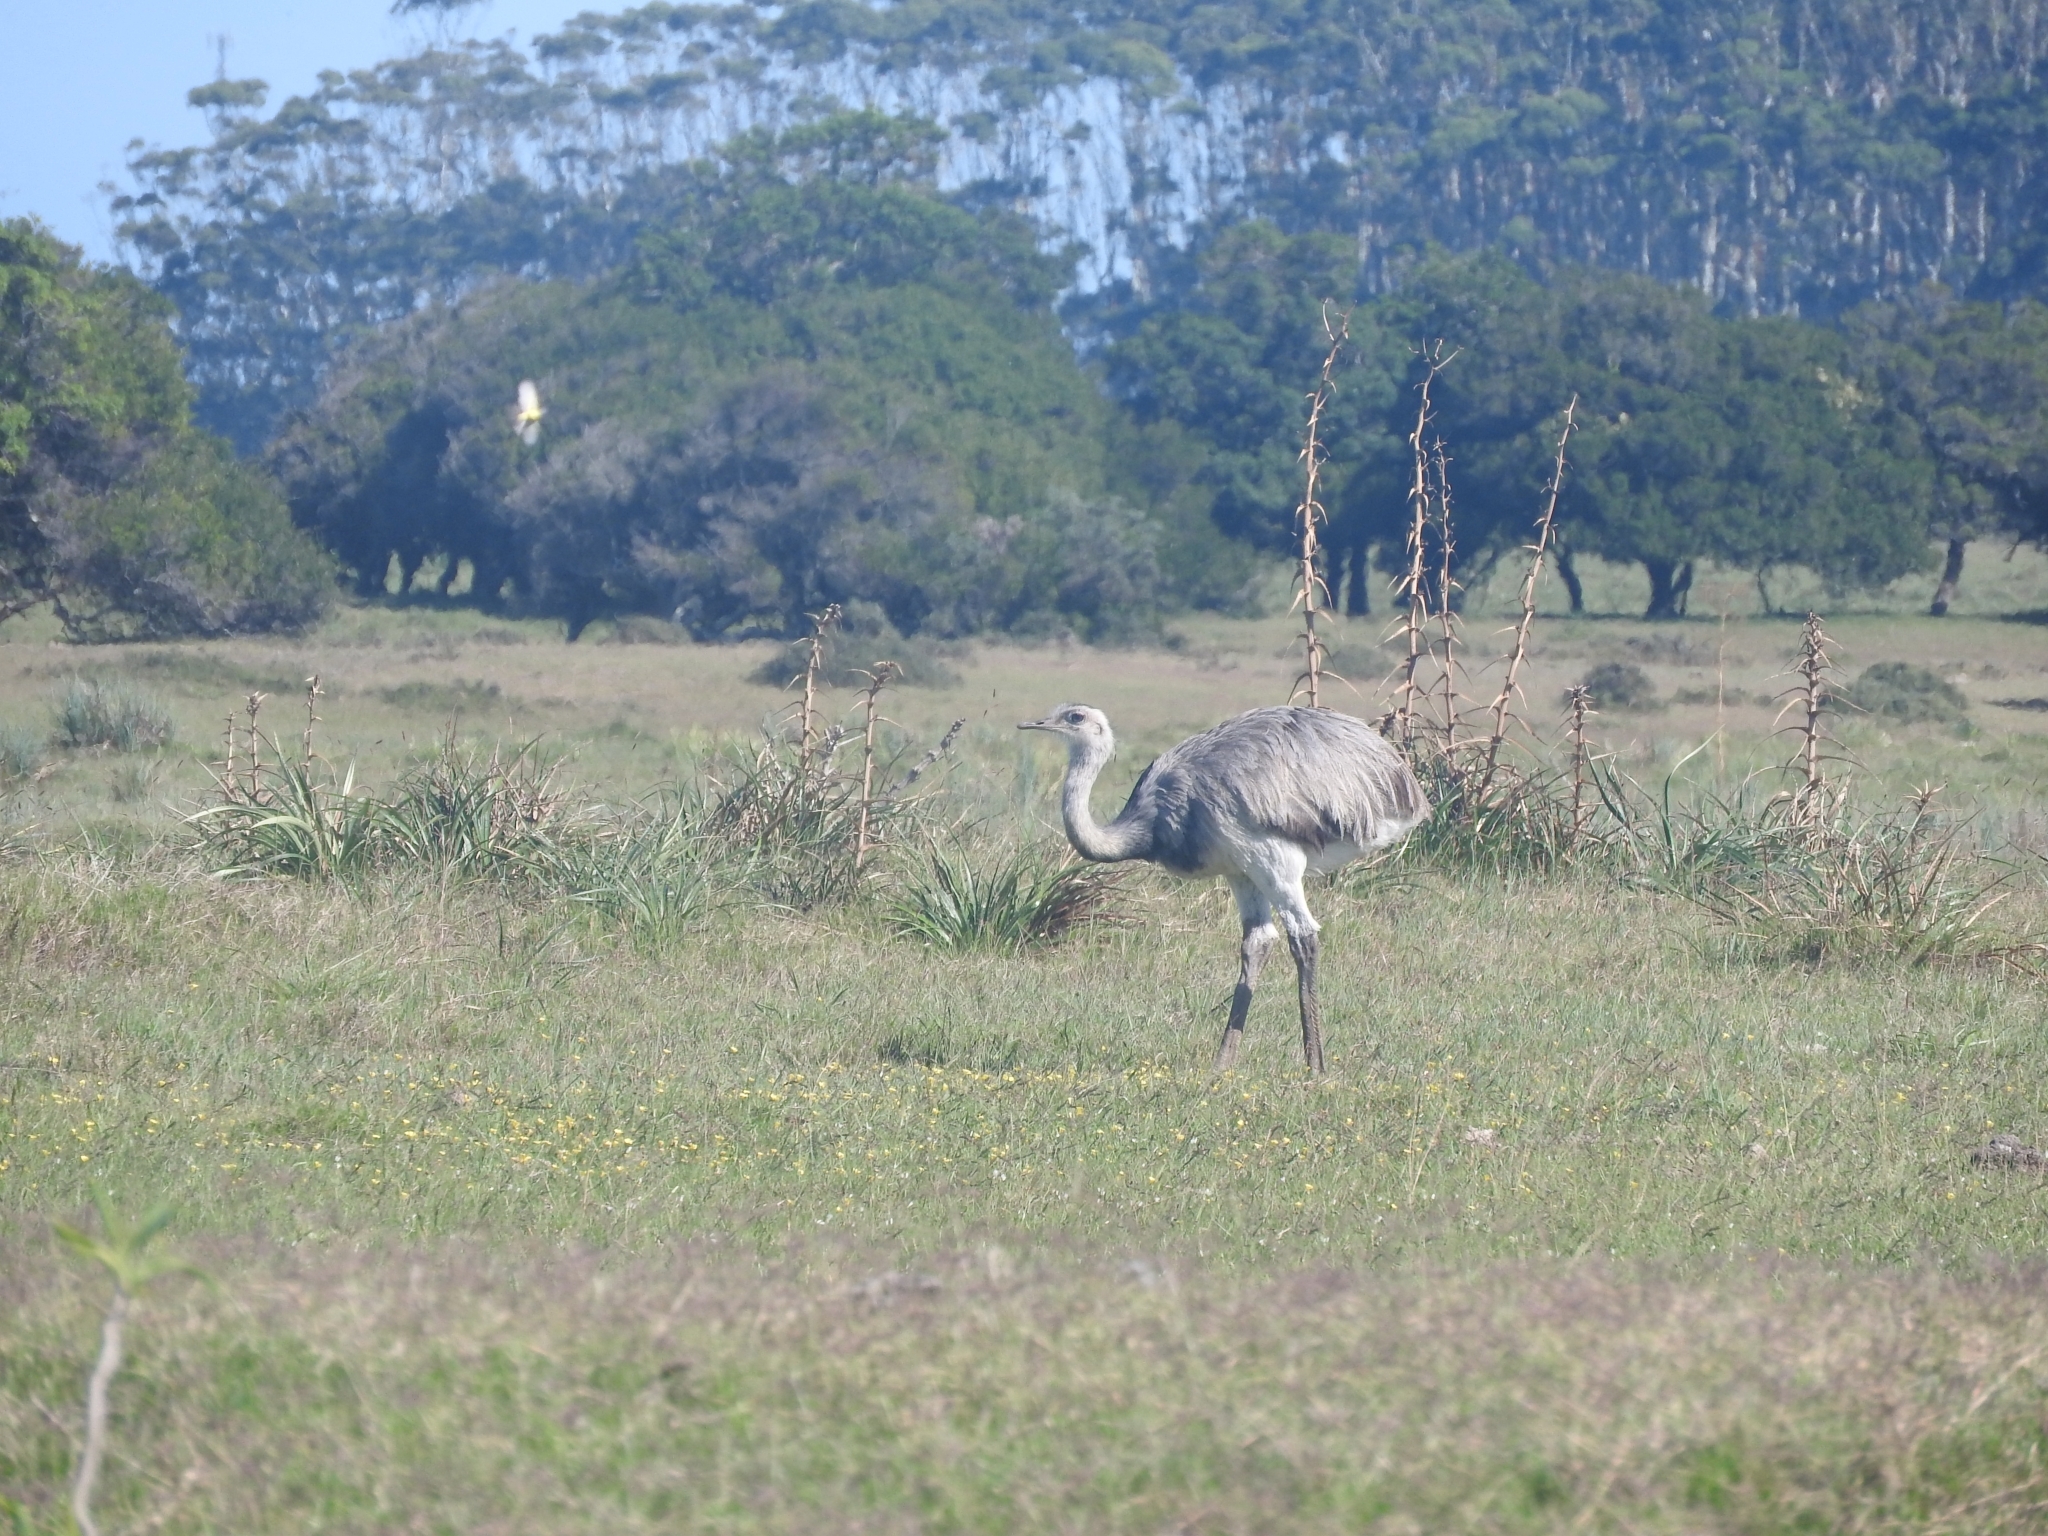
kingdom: Animalia
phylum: Chordata
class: Aves
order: Rheiformes
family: Rheidae
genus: Rhea
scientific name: Rhea americana
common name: Greater rhea
